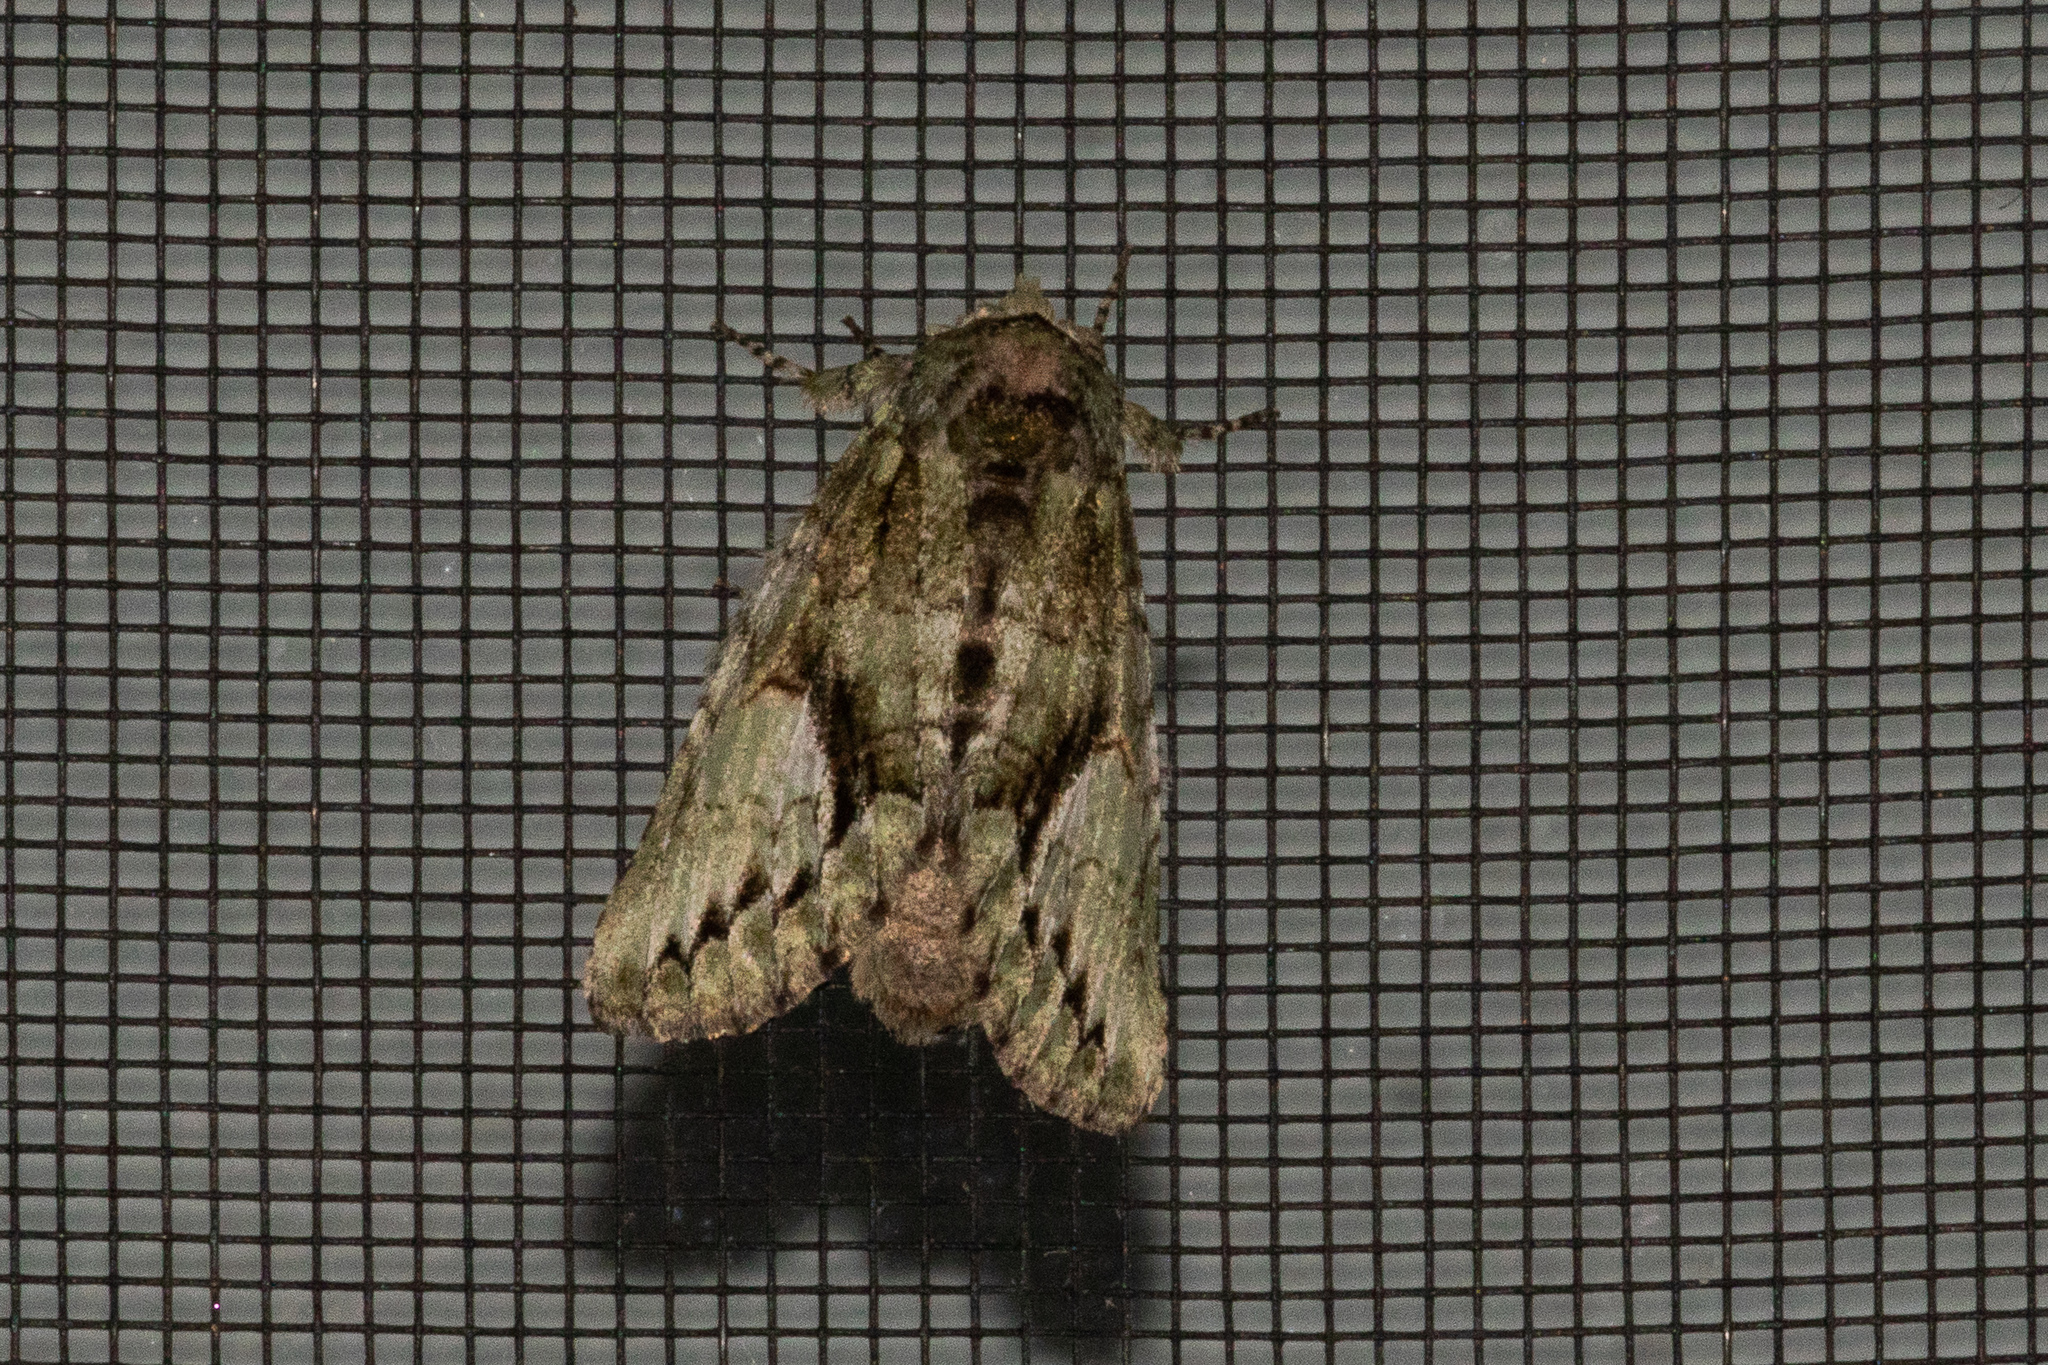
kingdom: Animalia
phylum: Arthropoda
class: Insecta
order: Lepidoptera
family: Notodontidae
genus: Heterocampa
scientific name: Heterocampa
